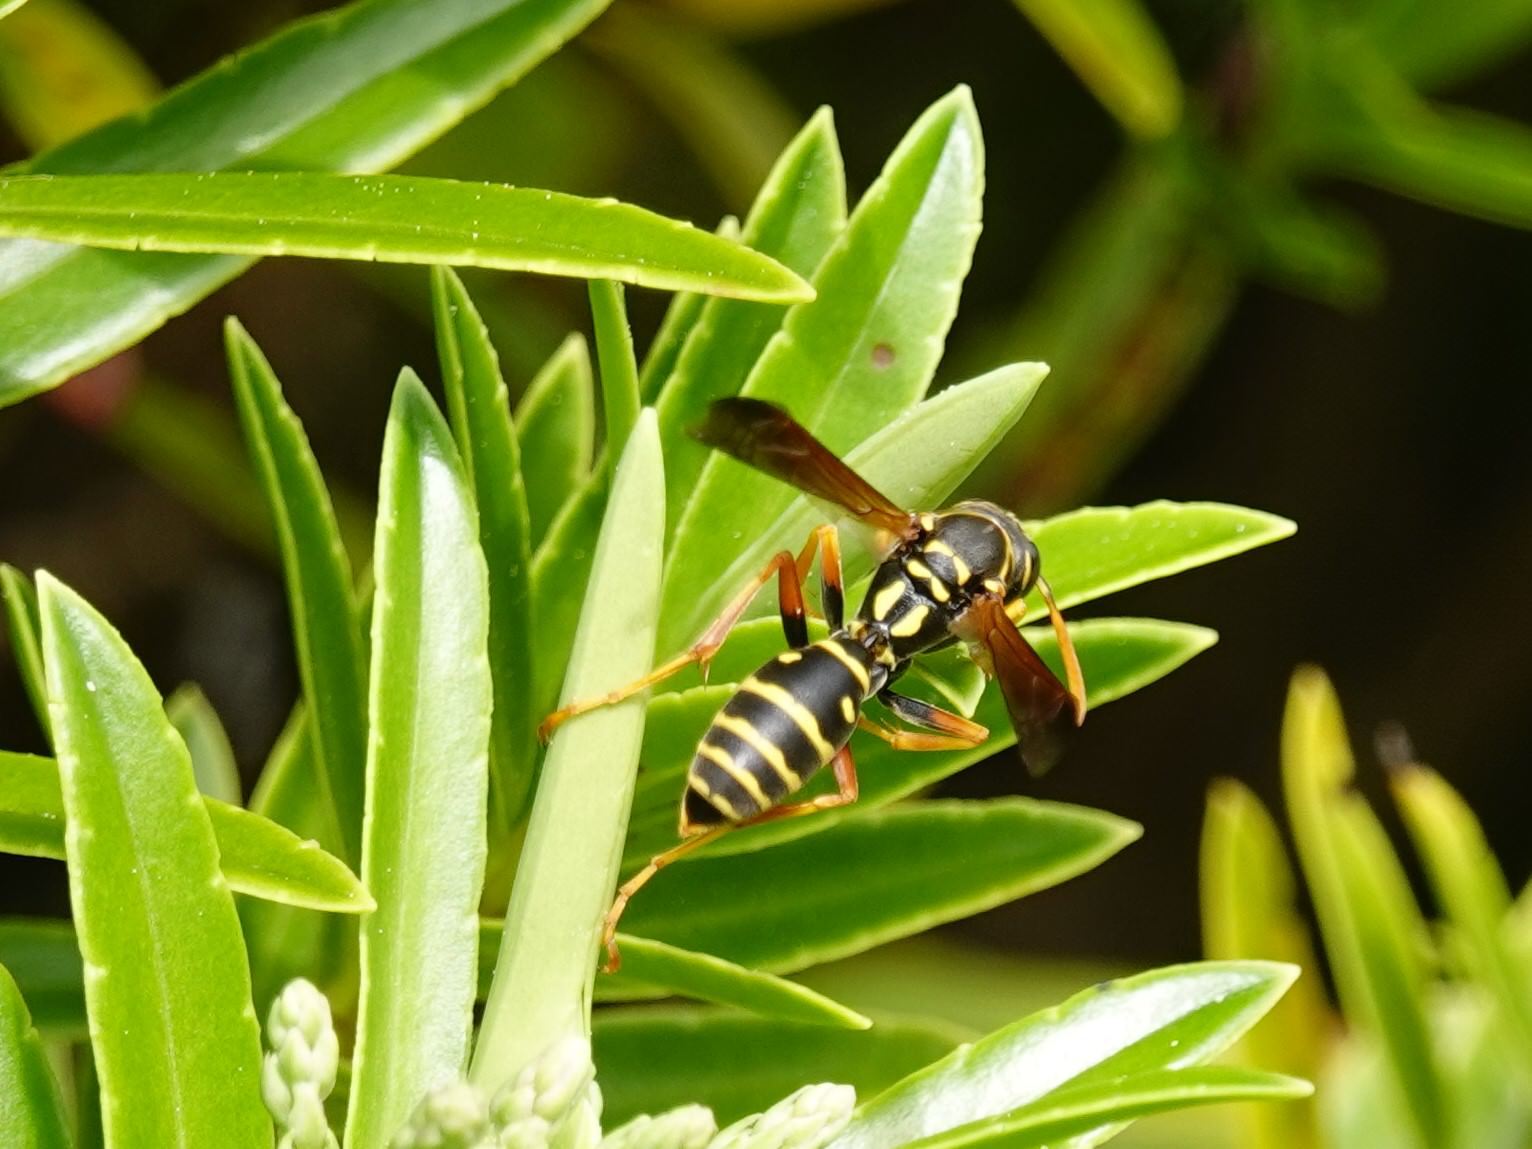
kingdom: Animalia
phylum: Arthropoda
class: Insecta
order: Hymenoptera
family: Eumenidae
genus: Polistes
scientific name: Polistes chinensis
